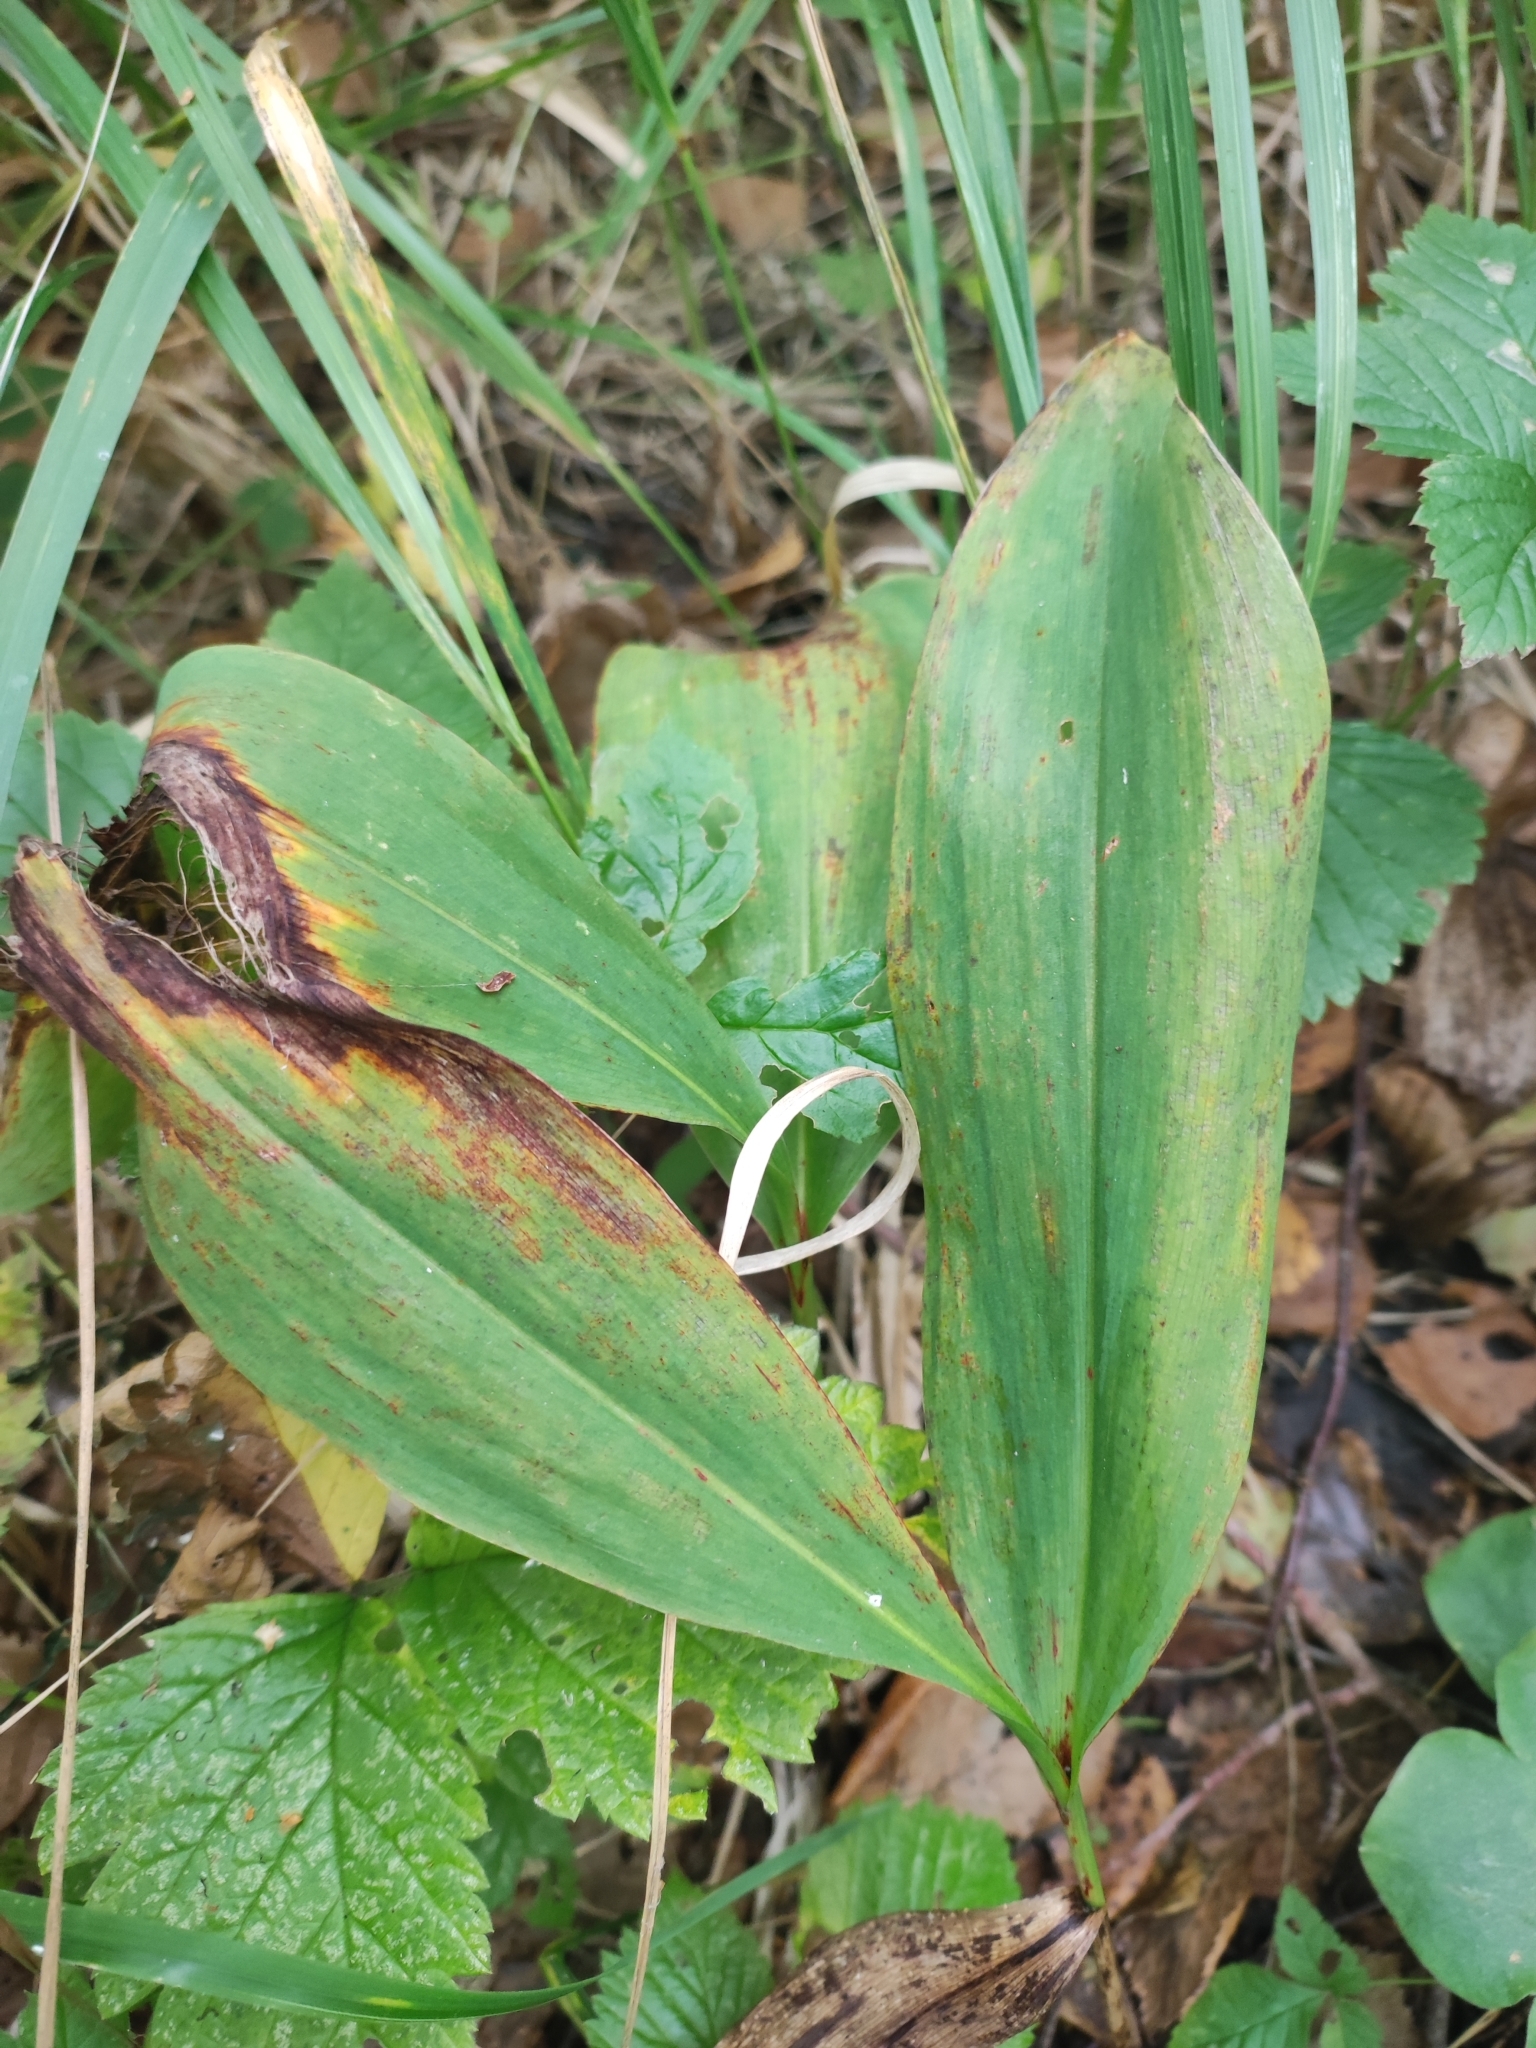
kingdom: Plantae
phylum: Tracheophyta
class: Liliopsida
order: Asparagales
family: Asparagaceae
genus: Convallaria
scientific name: Convallaria majalis
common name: Lily-of-the-valley
